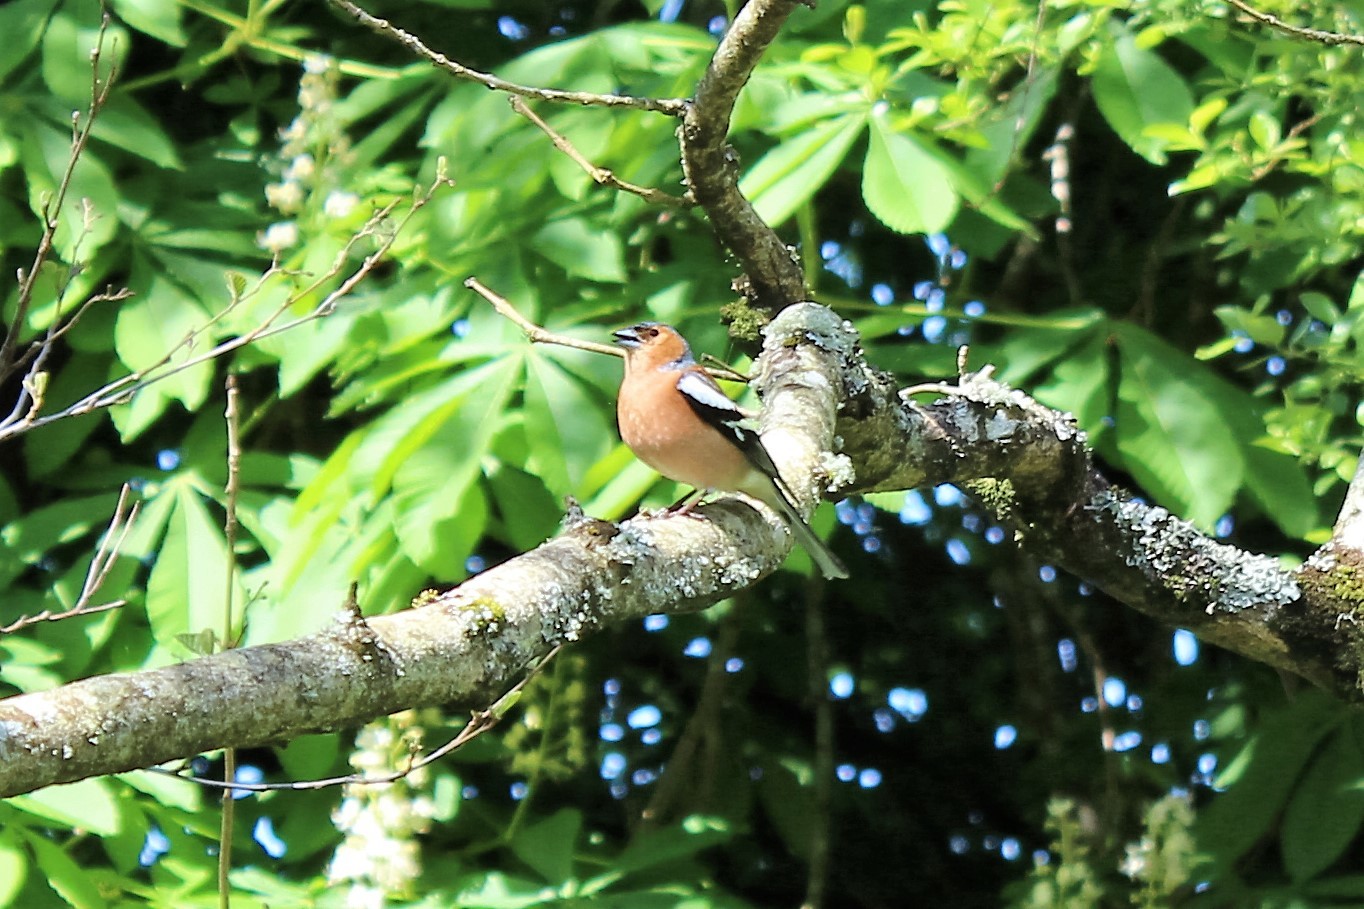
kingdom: Animalia
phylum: Chordata
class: Aves
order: Passeriformes
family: Fringillidae
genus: Fringilla
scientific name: Fringilla coelebs
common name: Common chaffinch
